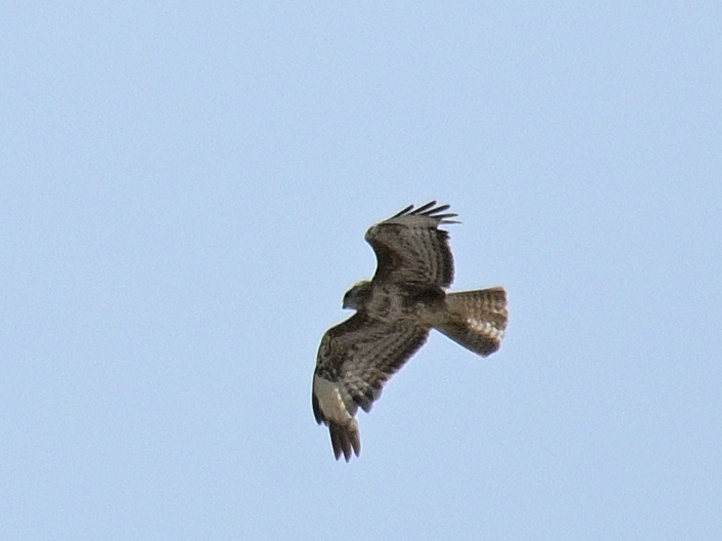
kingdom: Animalia
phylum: Chordata
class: Aves
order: Accipitriformes
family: Accipitridae
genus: Buteo
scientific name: Buteo buteo
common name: Common buzzard
